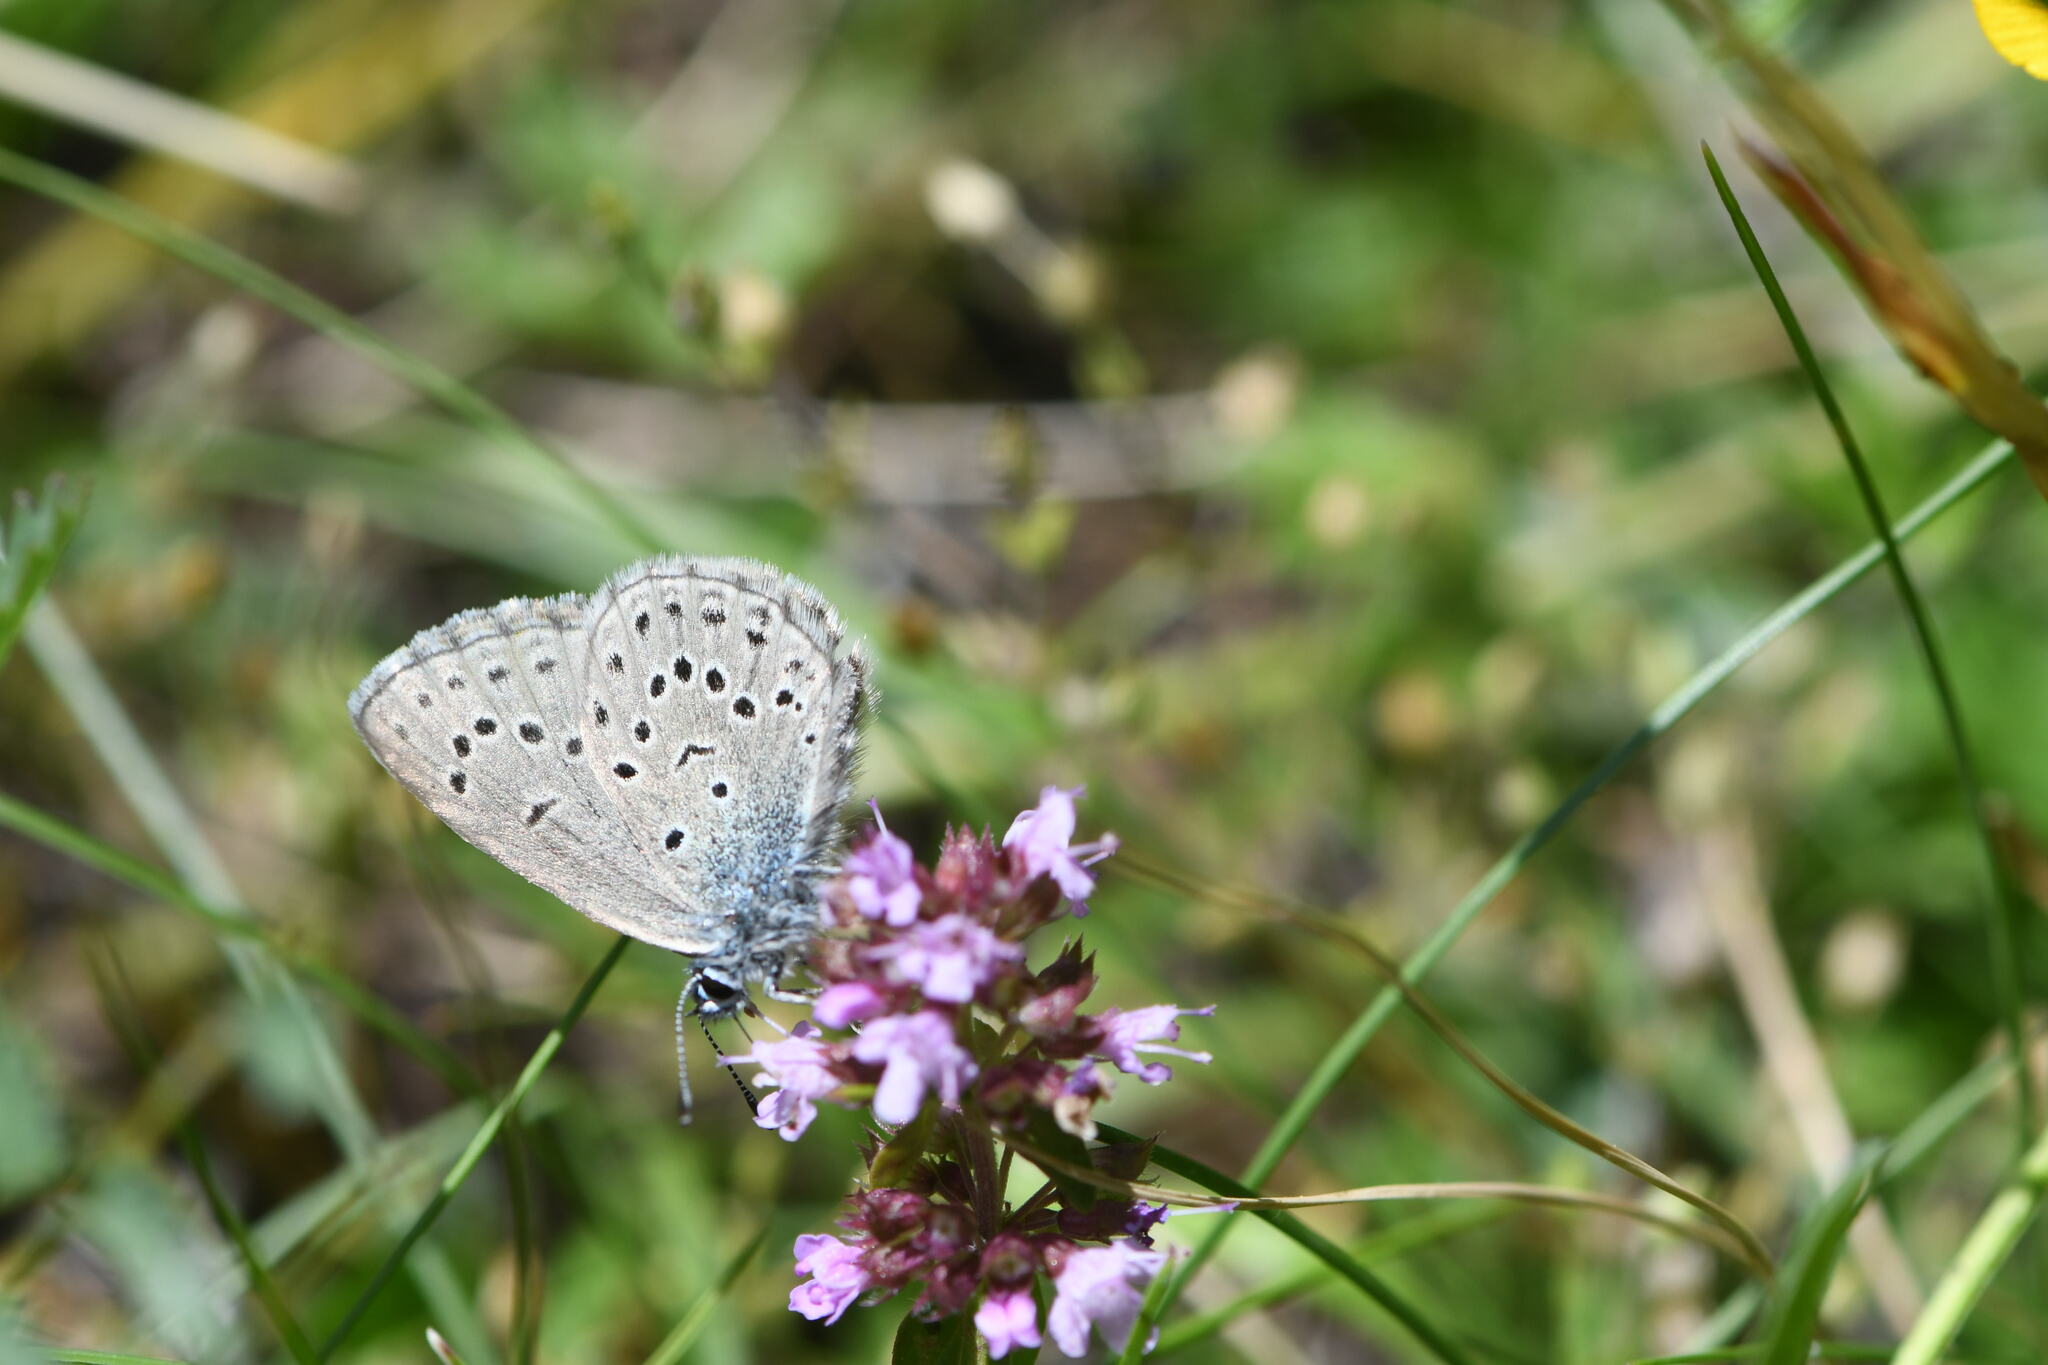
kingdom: Animalia
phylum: Arthropoda
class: Insecta
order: Lepidoptera
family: Lycaenidae
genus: Maculinea
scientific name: Maculinea alcon
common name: Alcon blue
